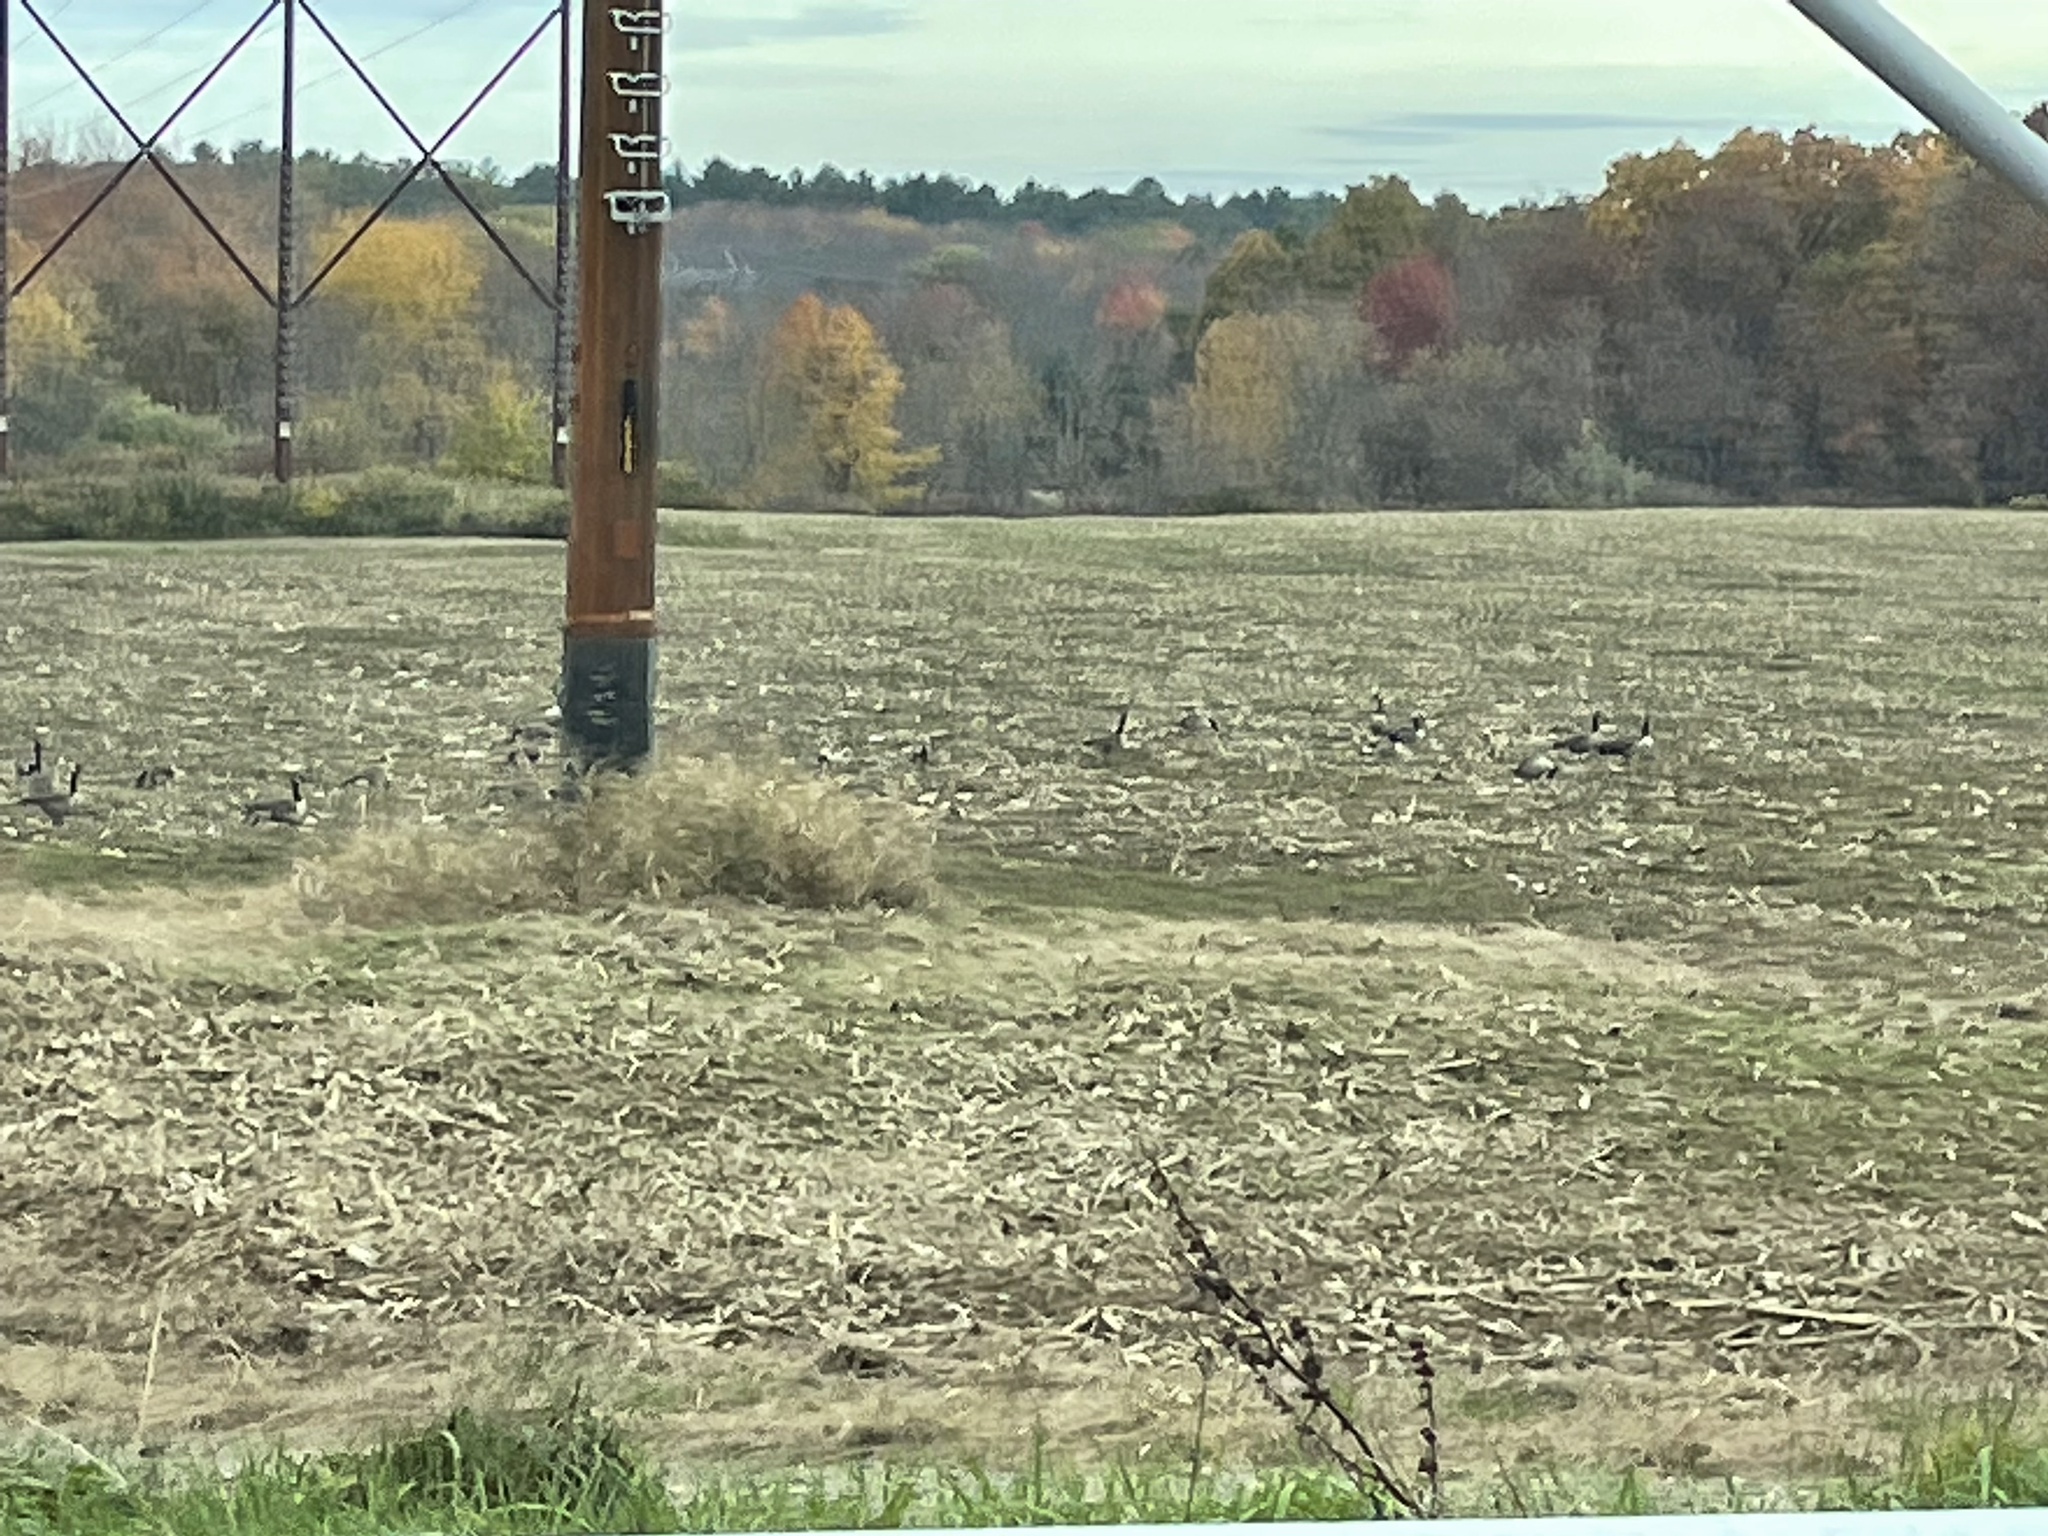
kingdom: Animalia
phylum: Chordata
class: Aves
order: Anseriformes
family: Anatidae
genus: Branta
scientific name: Branta canadensis
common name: Canada goose
